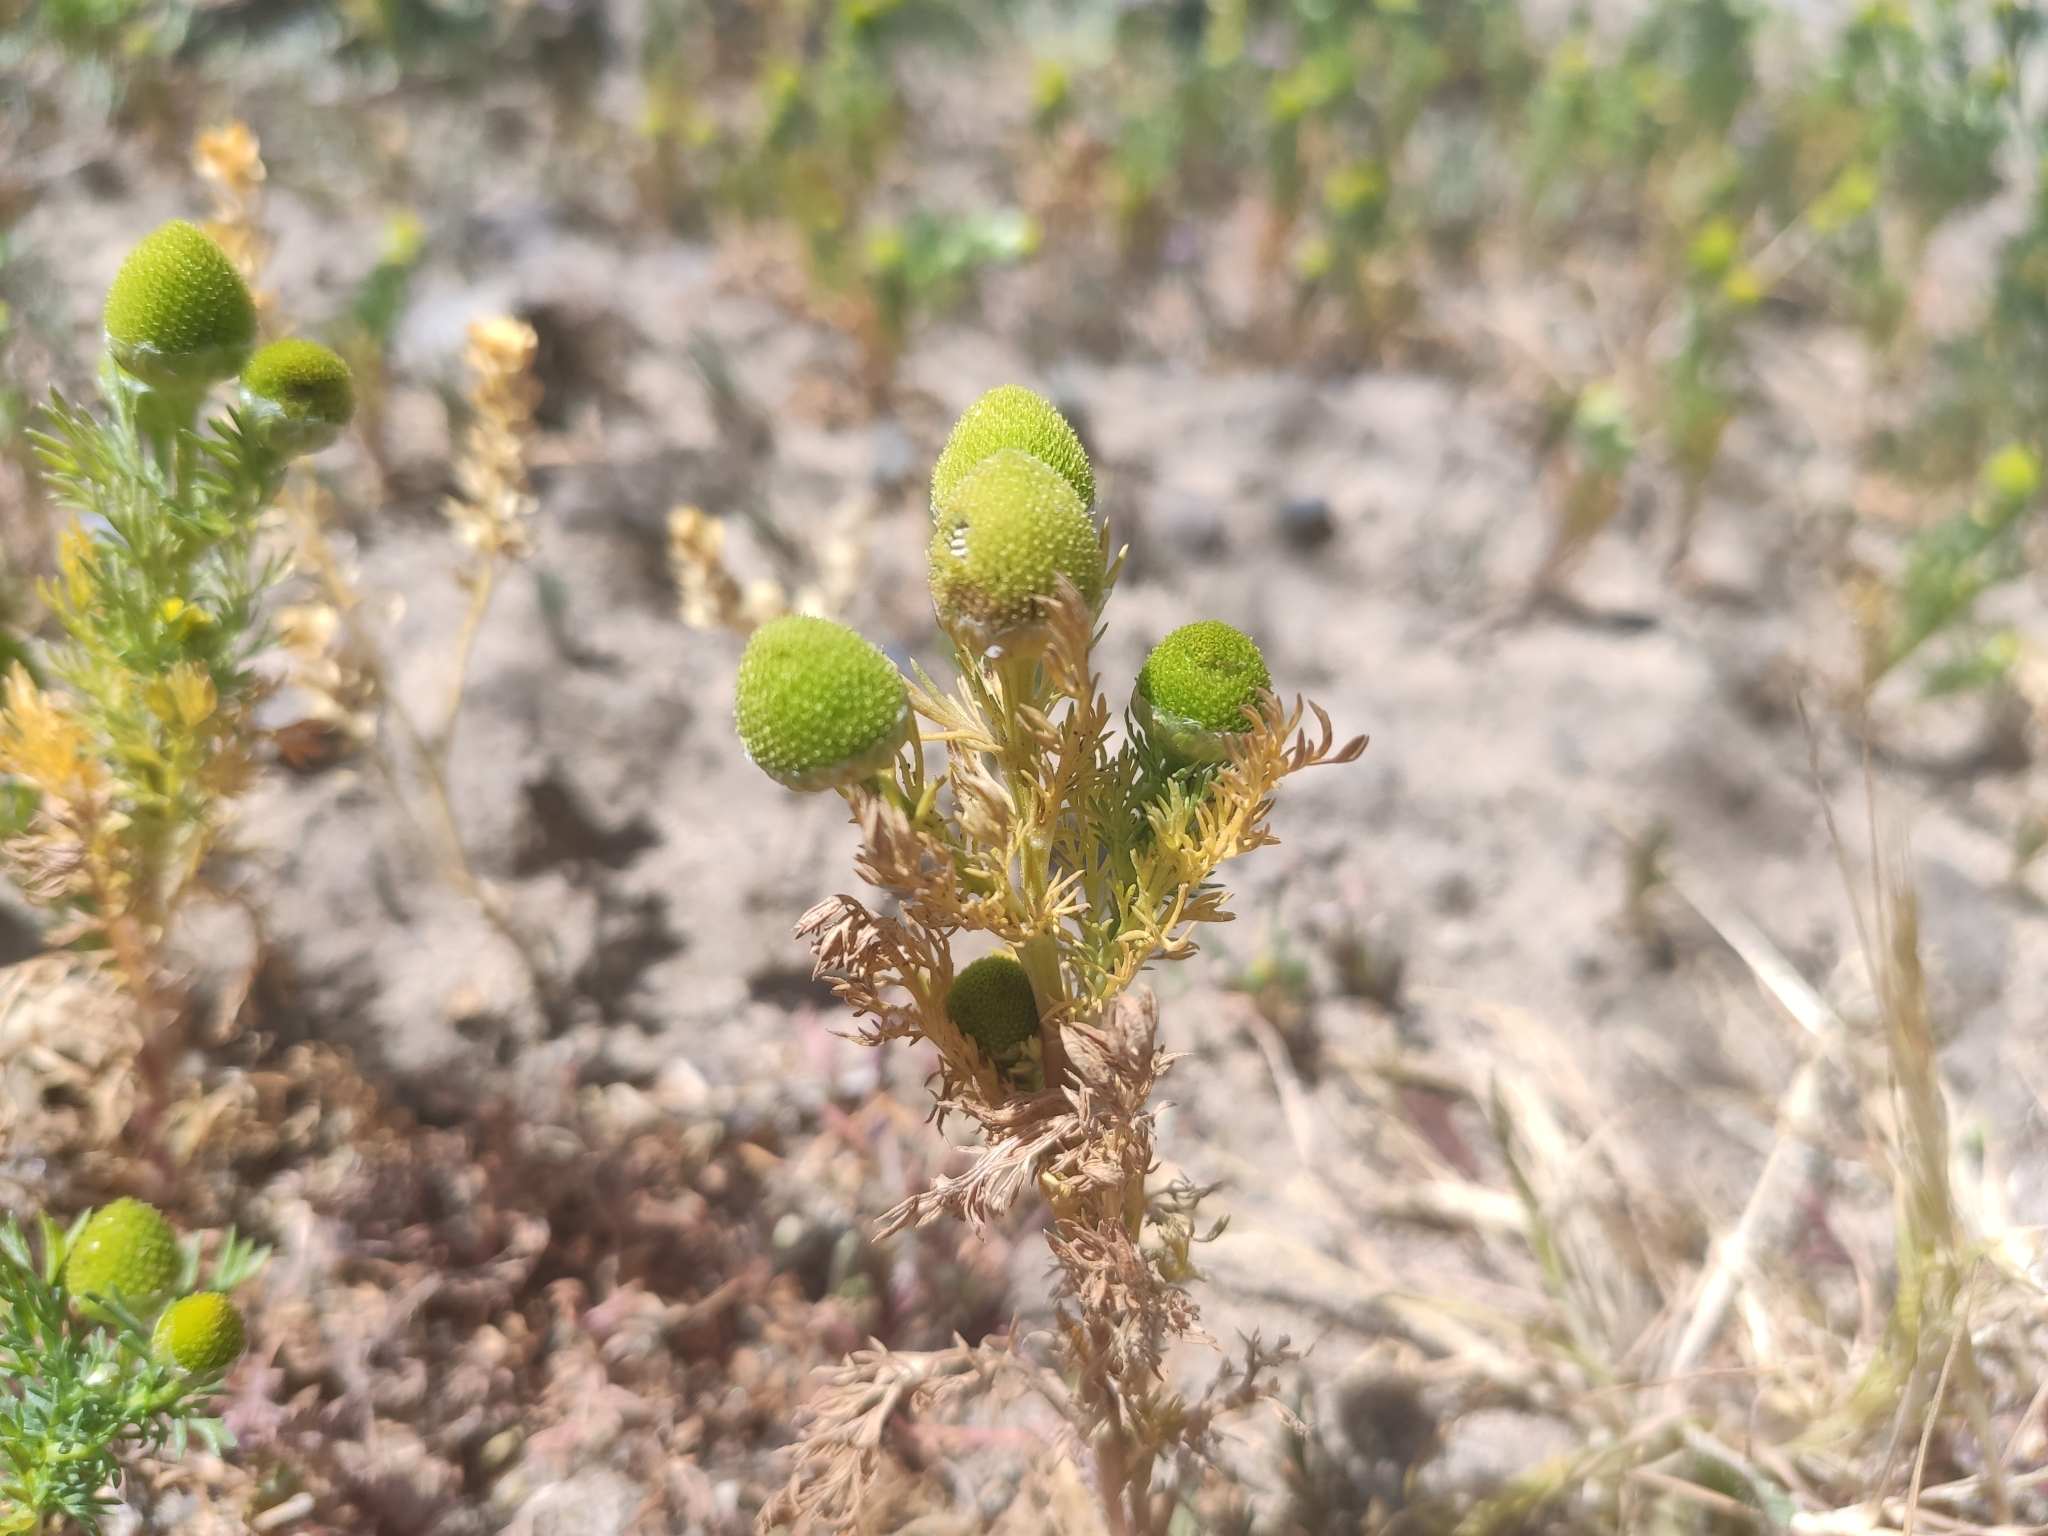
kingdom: Plantae
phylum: Tracheophyta
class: Magnoliopsida
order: Asterales
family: Asteraceae
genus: Matricaria
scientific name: Matricaria discoidea
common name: Disc mayweed
